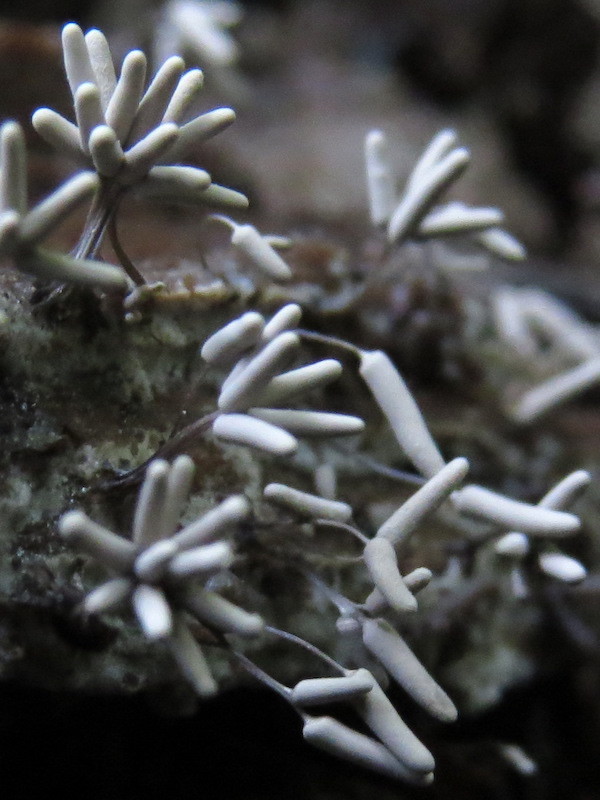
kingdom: Protozoa
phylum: Mycetozoa
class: Myxomycetes
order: Trichiales
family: Arcyriaceae
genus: Arcyria
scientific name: Arcyria cinerea
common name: White carnival candy slime mold
